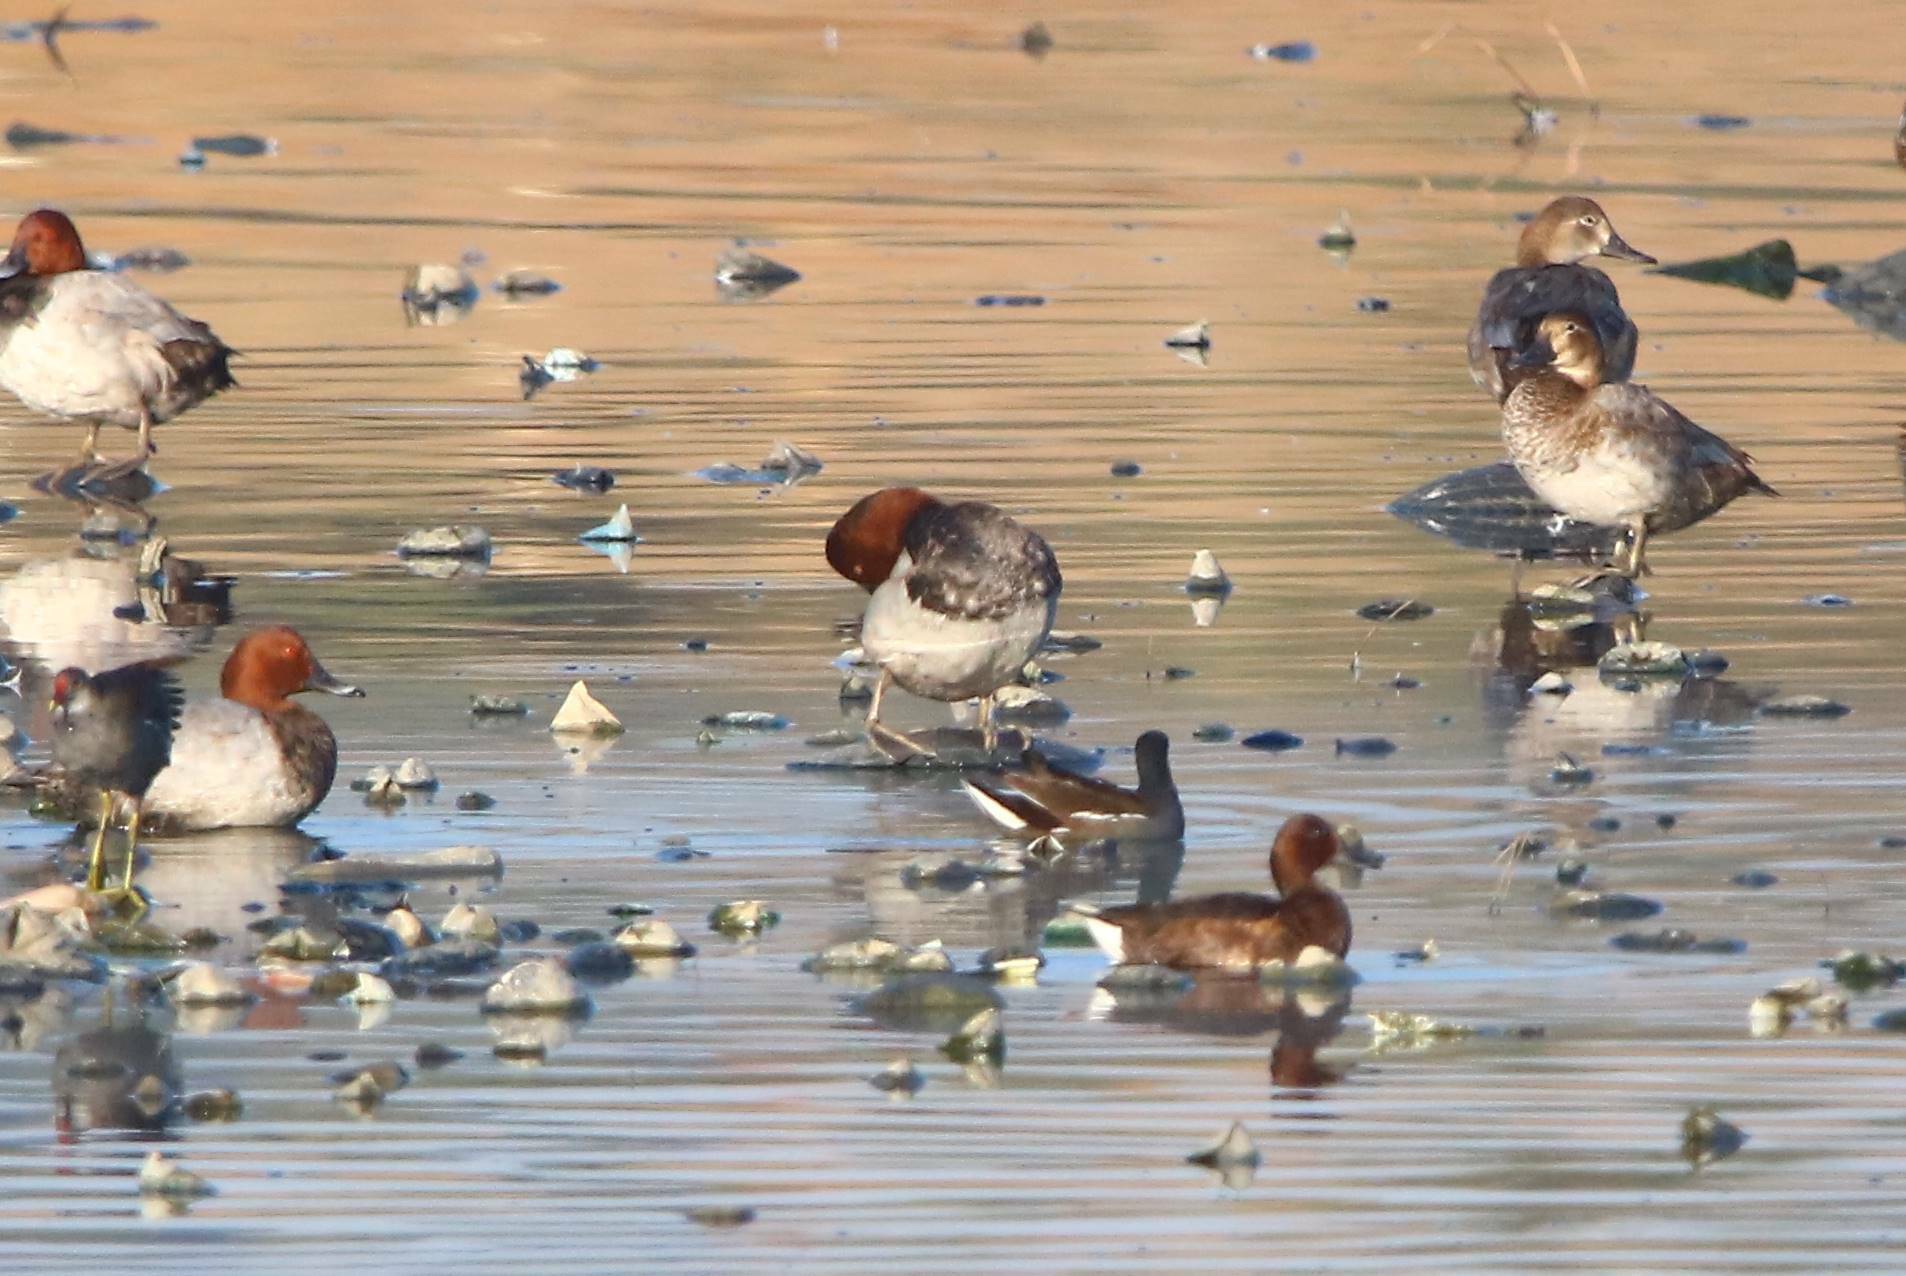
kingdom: Animalia
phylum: Chordata
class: Aves
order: Anseriformes
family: Anatidae
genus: Aythya
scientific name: Aythya nyroca
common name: Ferruginous duck
